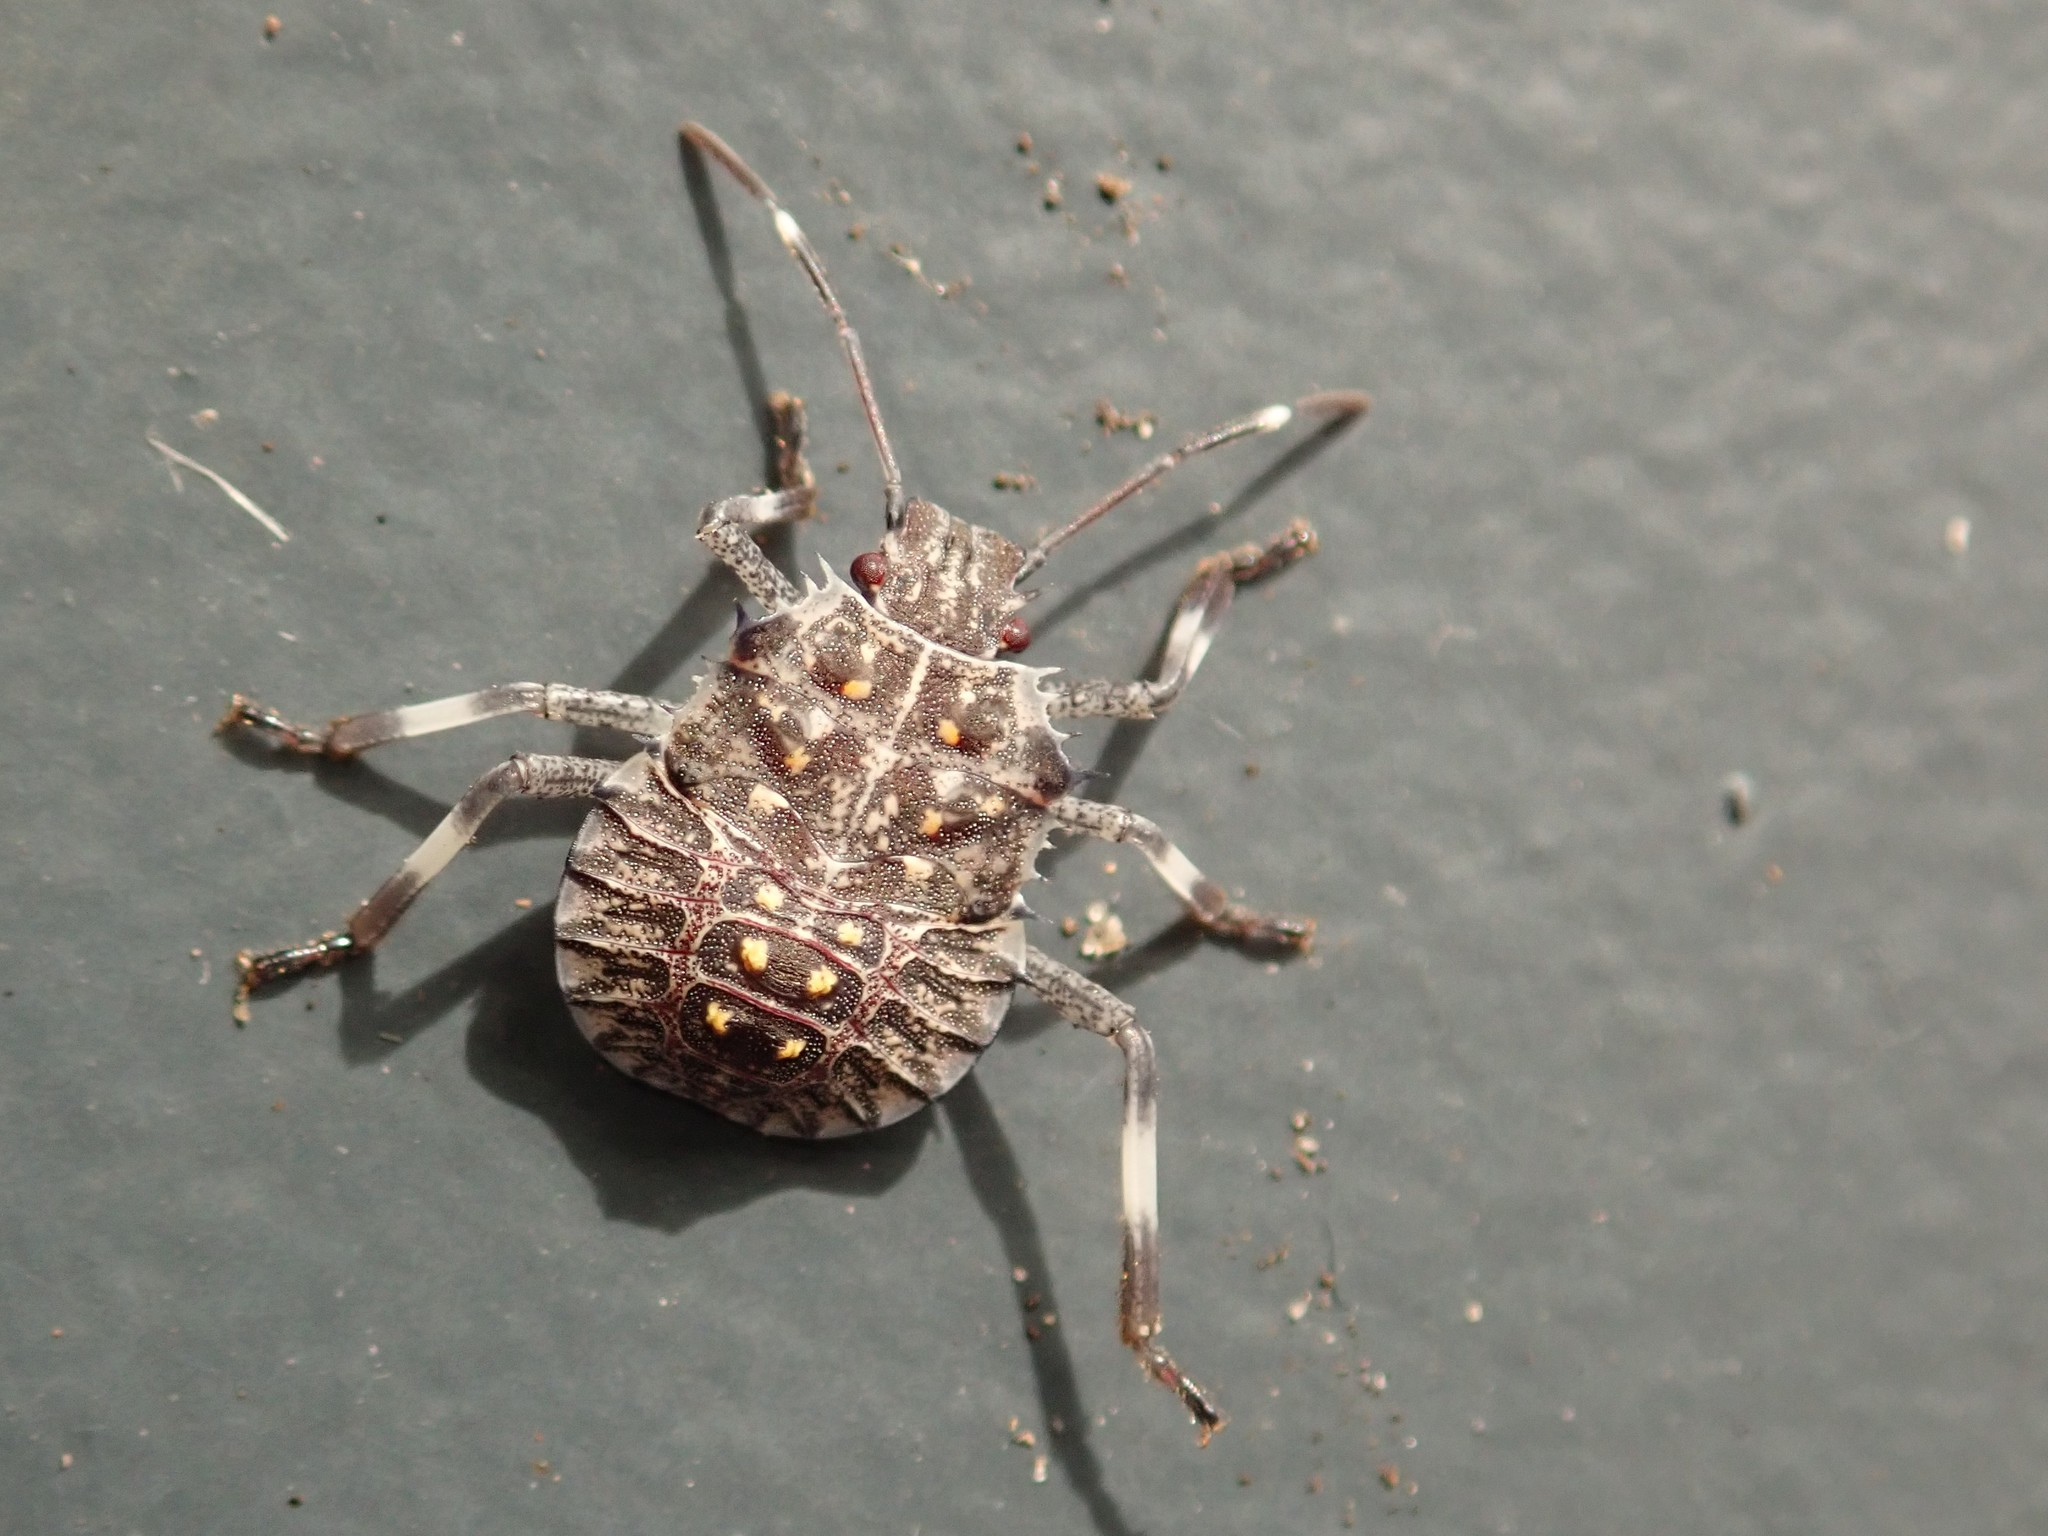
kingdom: Animalia
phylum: Arthropoda
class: Insecta
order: Hemiptera
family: Pentatomidae
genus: Halyomorpha
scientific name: Halyomorpha halys
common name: Brown marmorated stink bug
